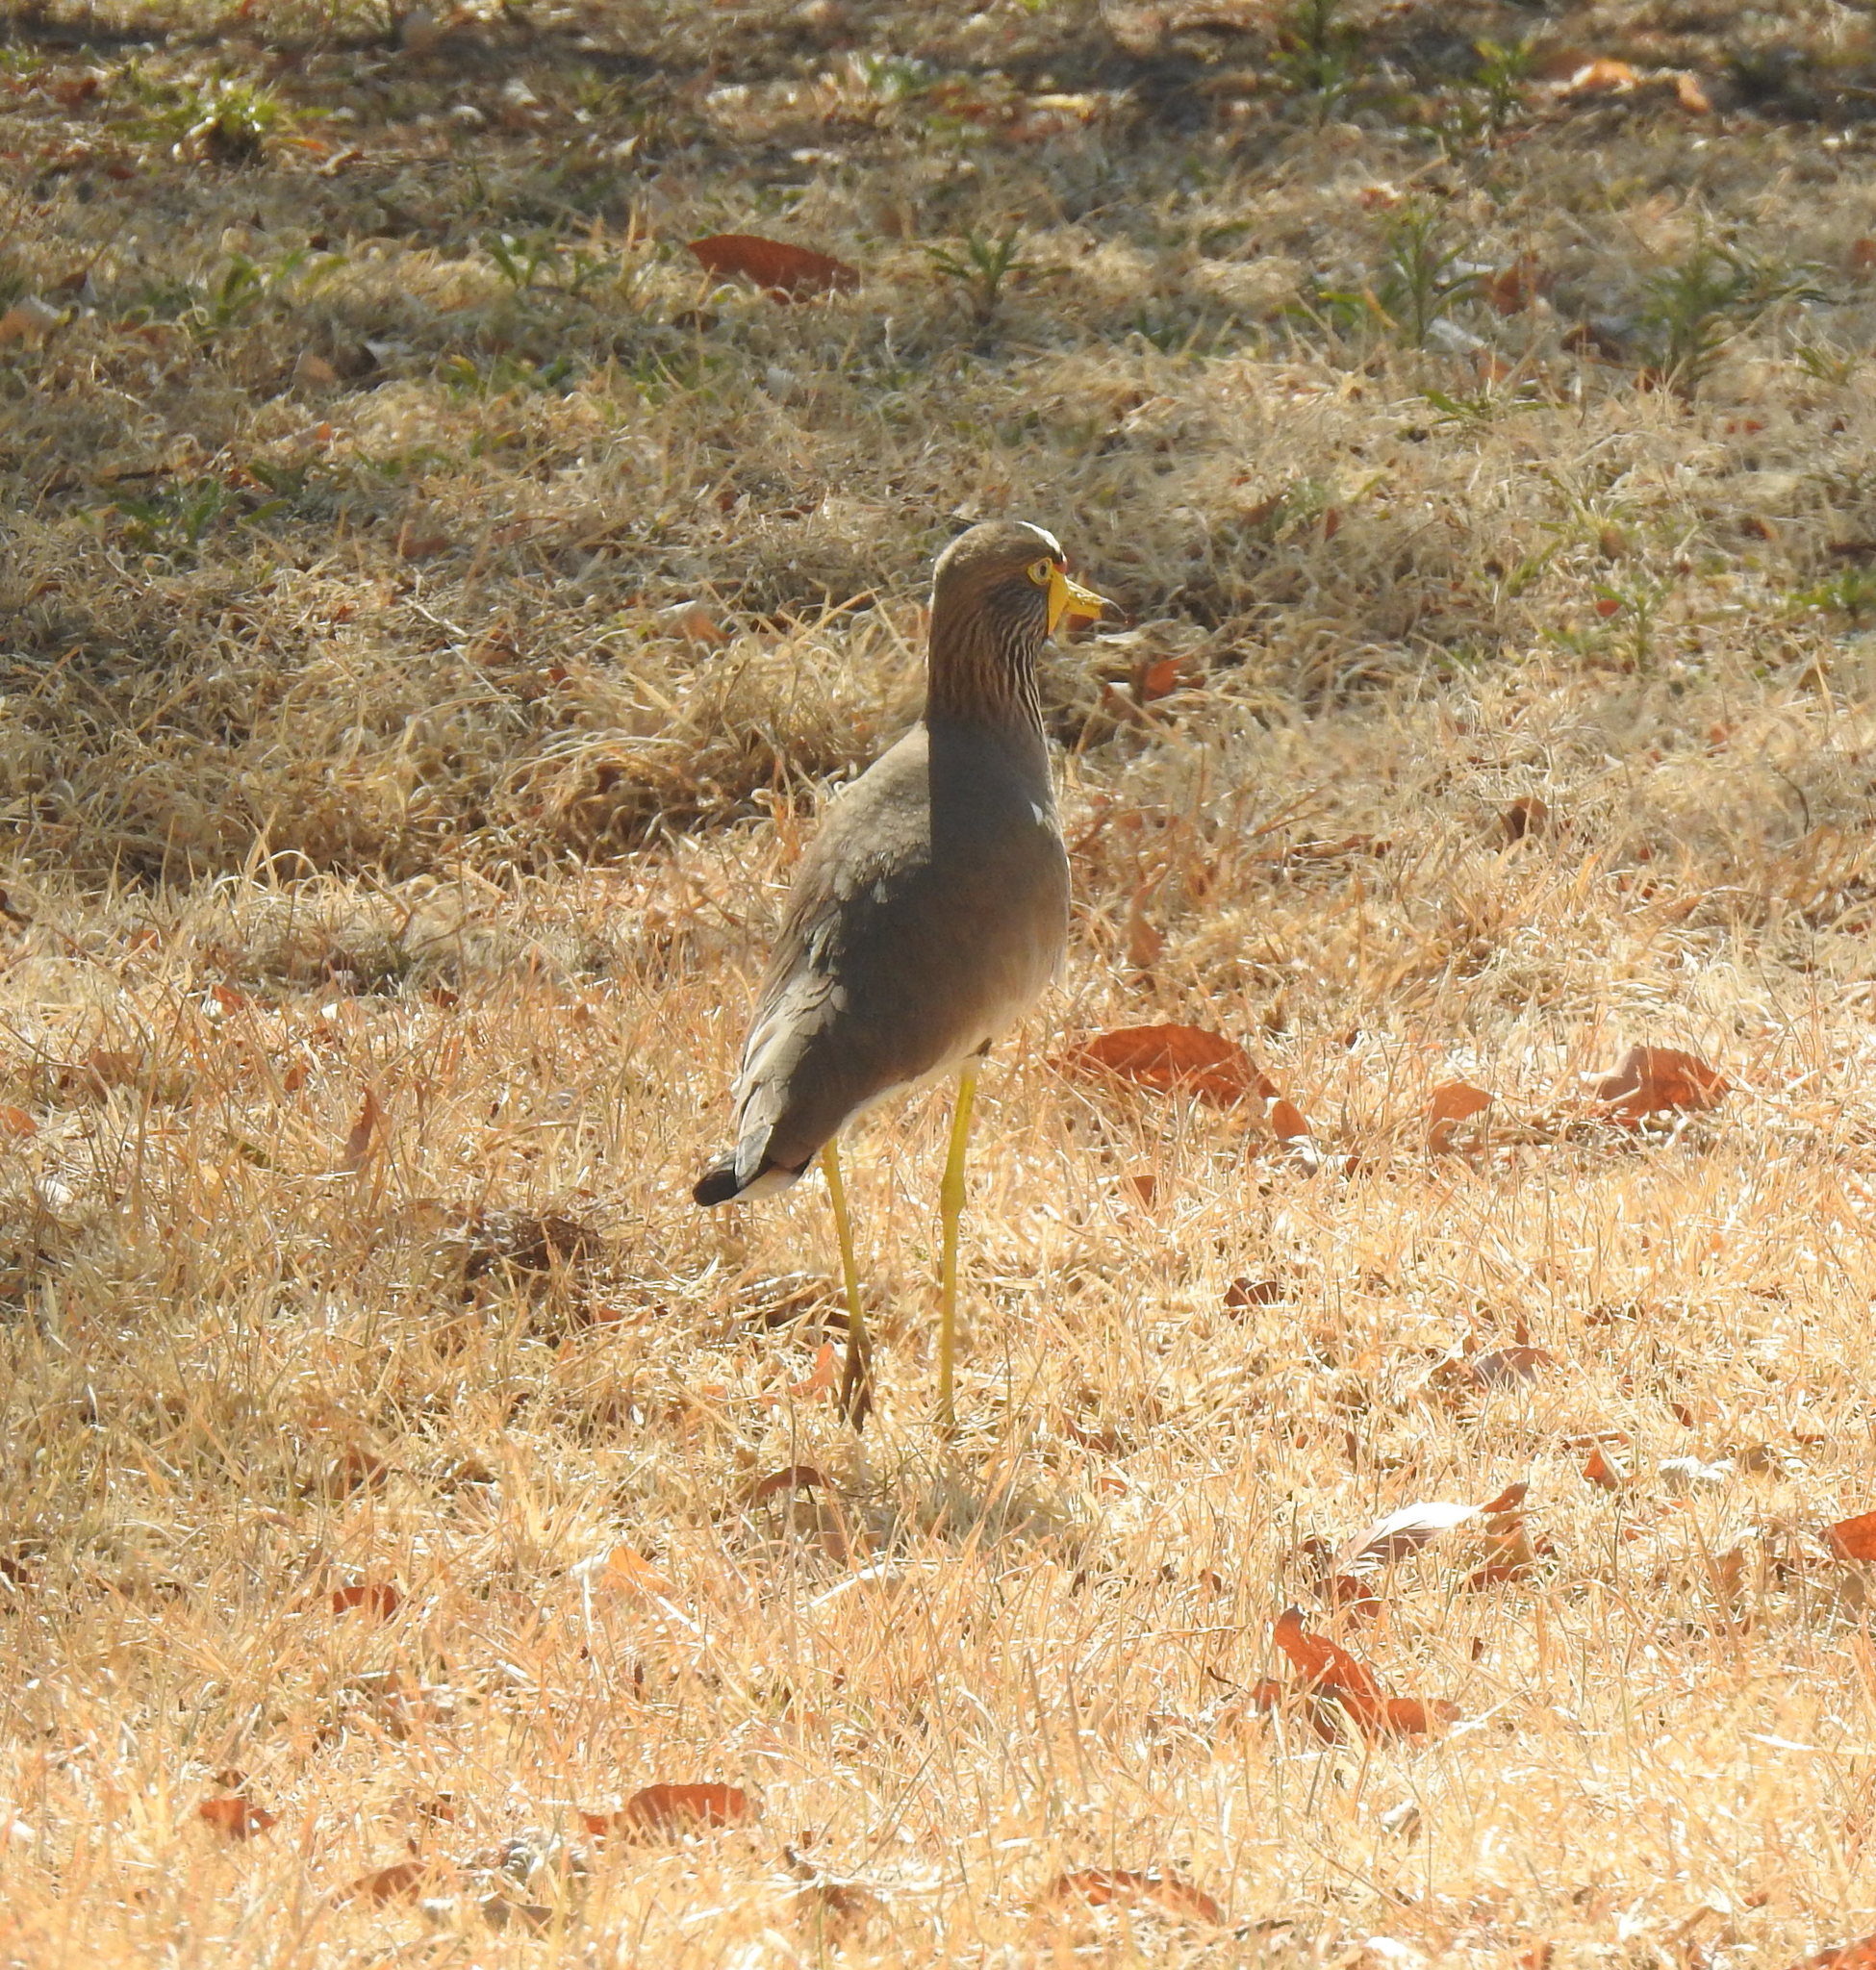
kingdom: Animalia
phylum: Chordata
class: Aves
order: Charadriiformes
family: Charadriidae
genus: Vanellus
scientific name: Vanellus senegallus
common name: African wattled lapwing
